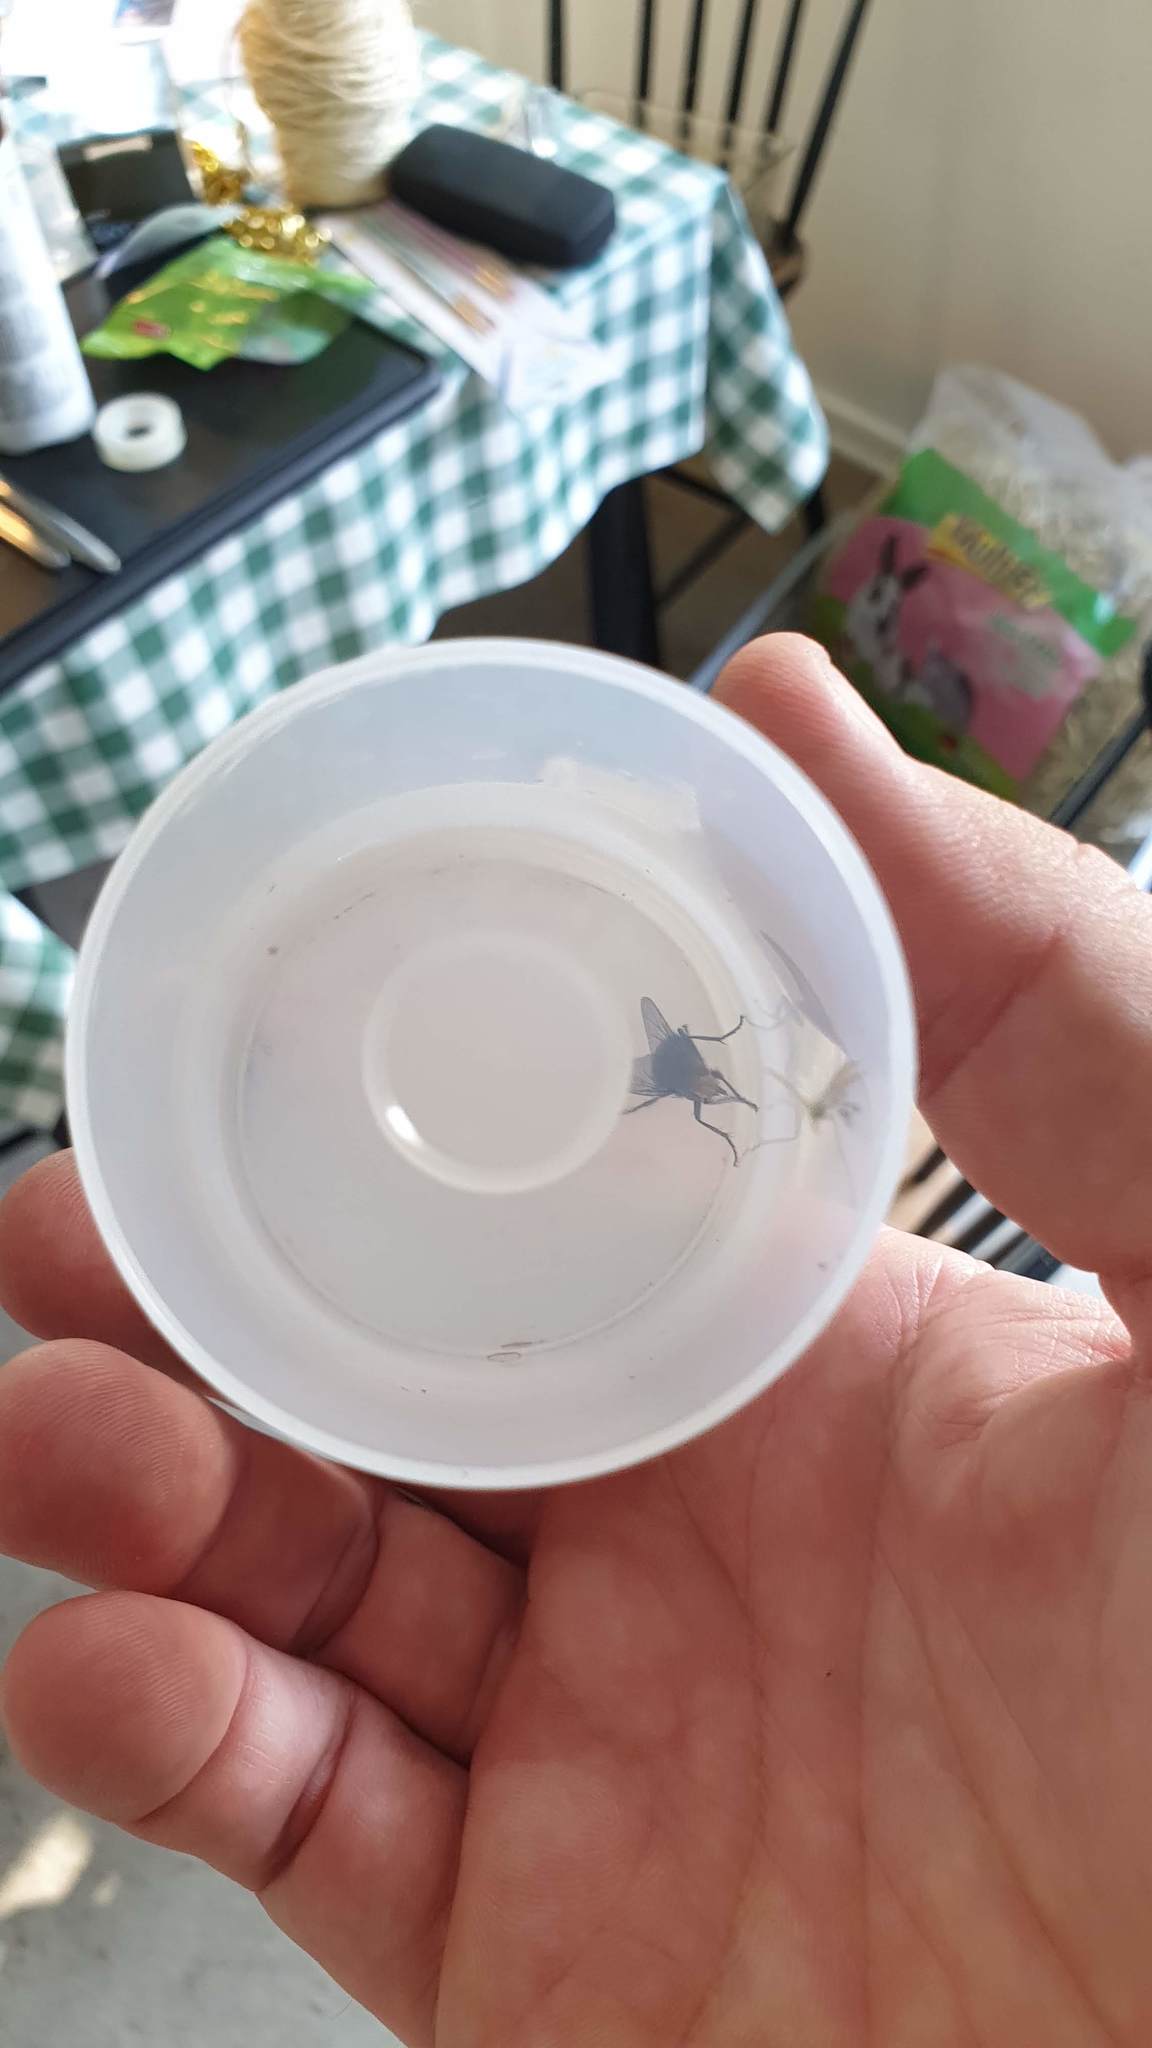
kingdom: Animalia
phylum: Arthropoda
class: Insecta
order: Diptera
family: Calliphoridae
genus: Cynomya
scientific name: Cynomya mortuorum
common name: Bluebottle blow fly
